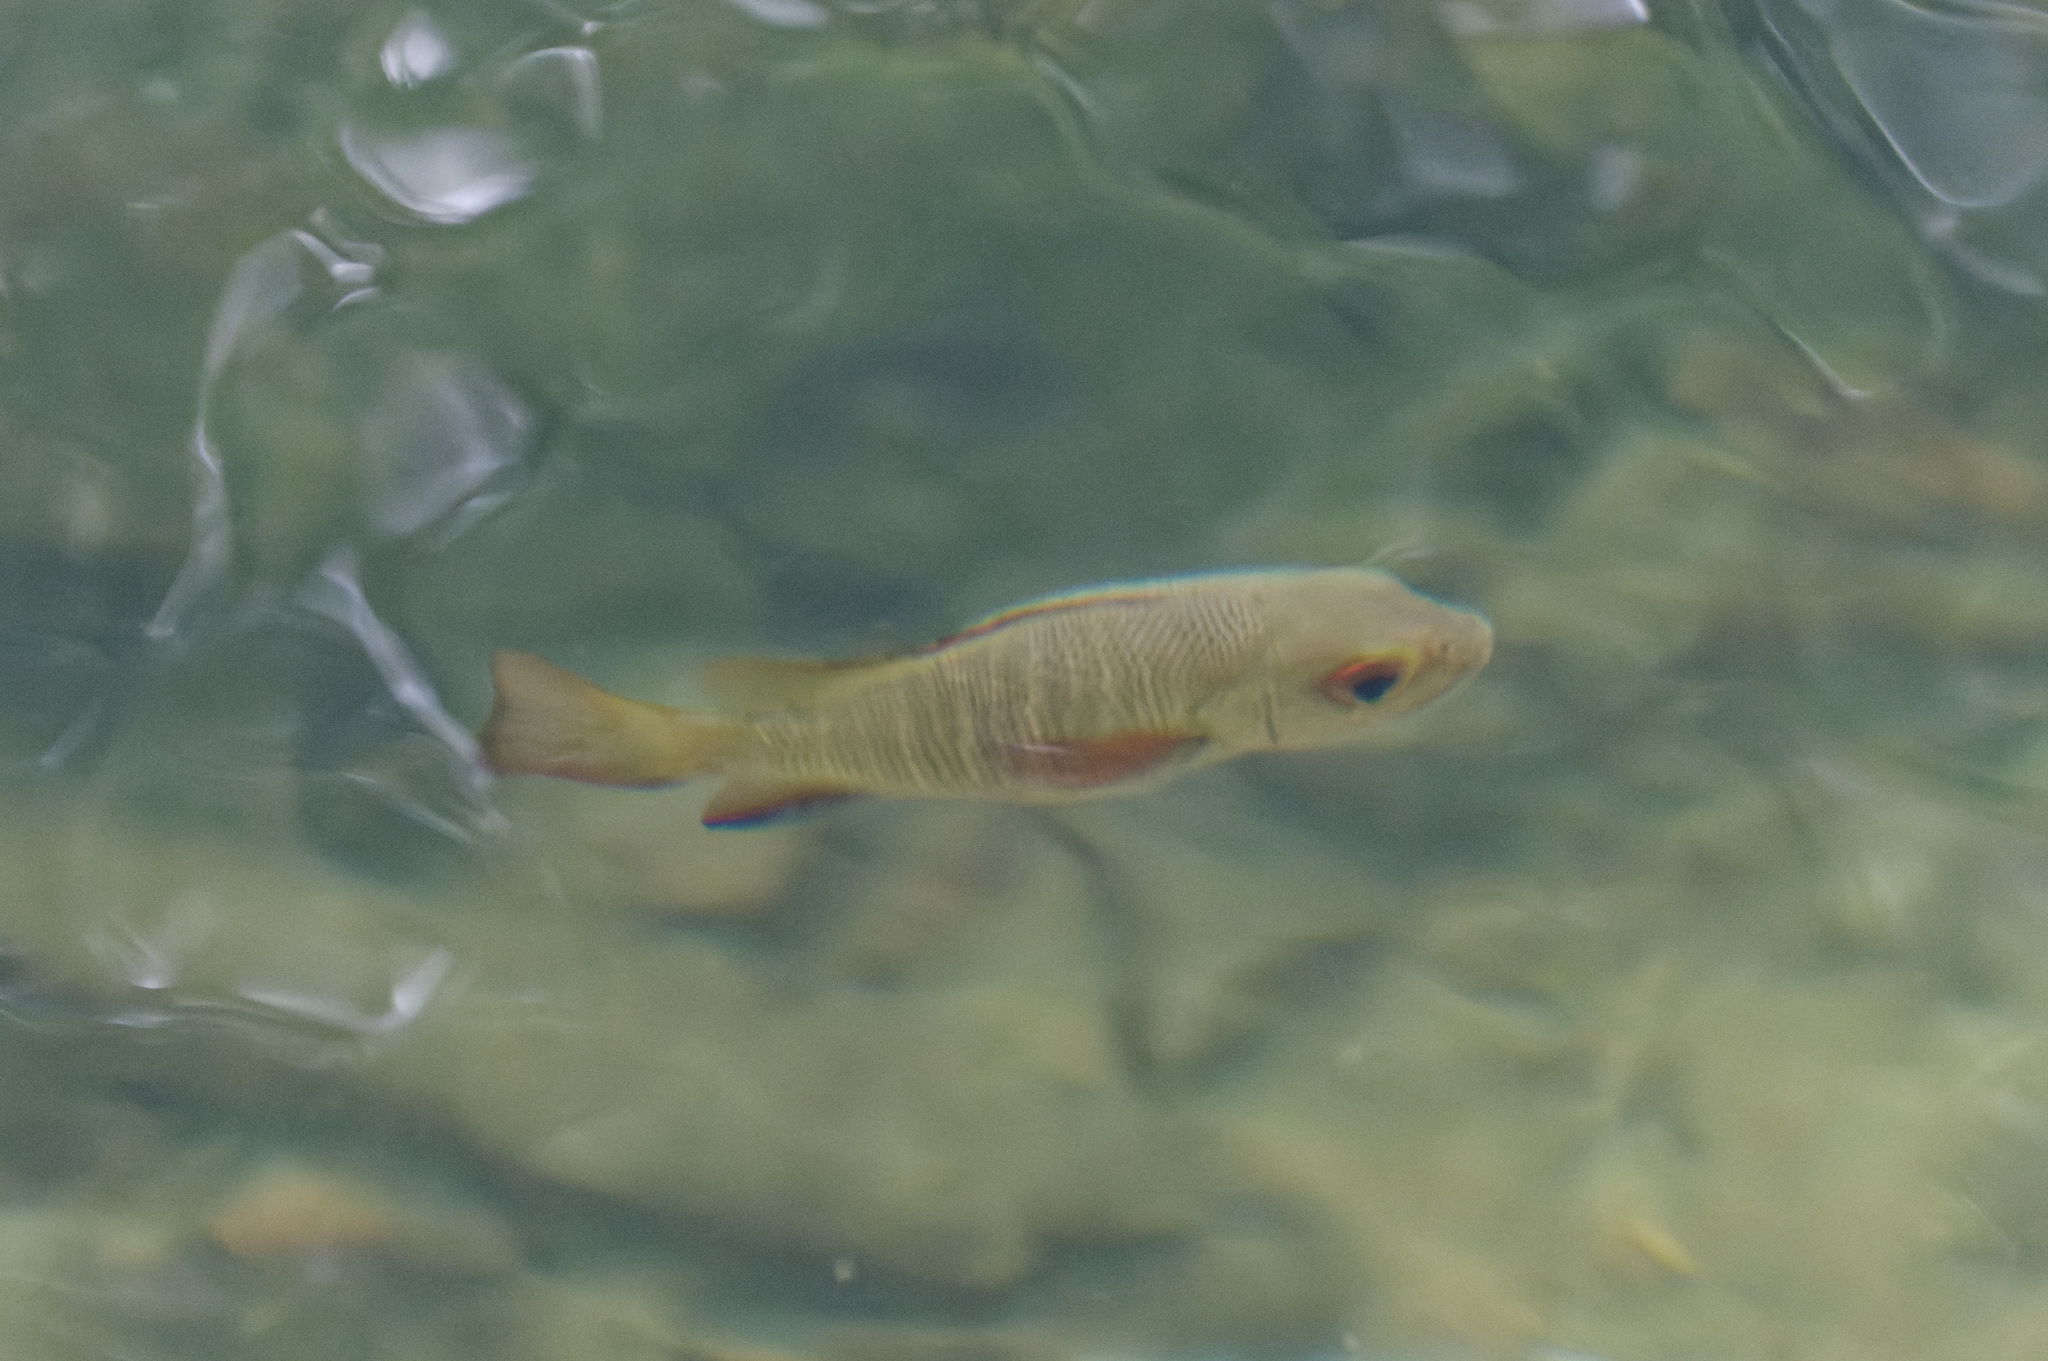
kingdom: Animalia
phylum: Chordata
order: Perciformes
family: Lutjanidae
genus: Lutjanus
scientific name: Lutjanus argentimaculatus
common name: Mangrove red snapper
